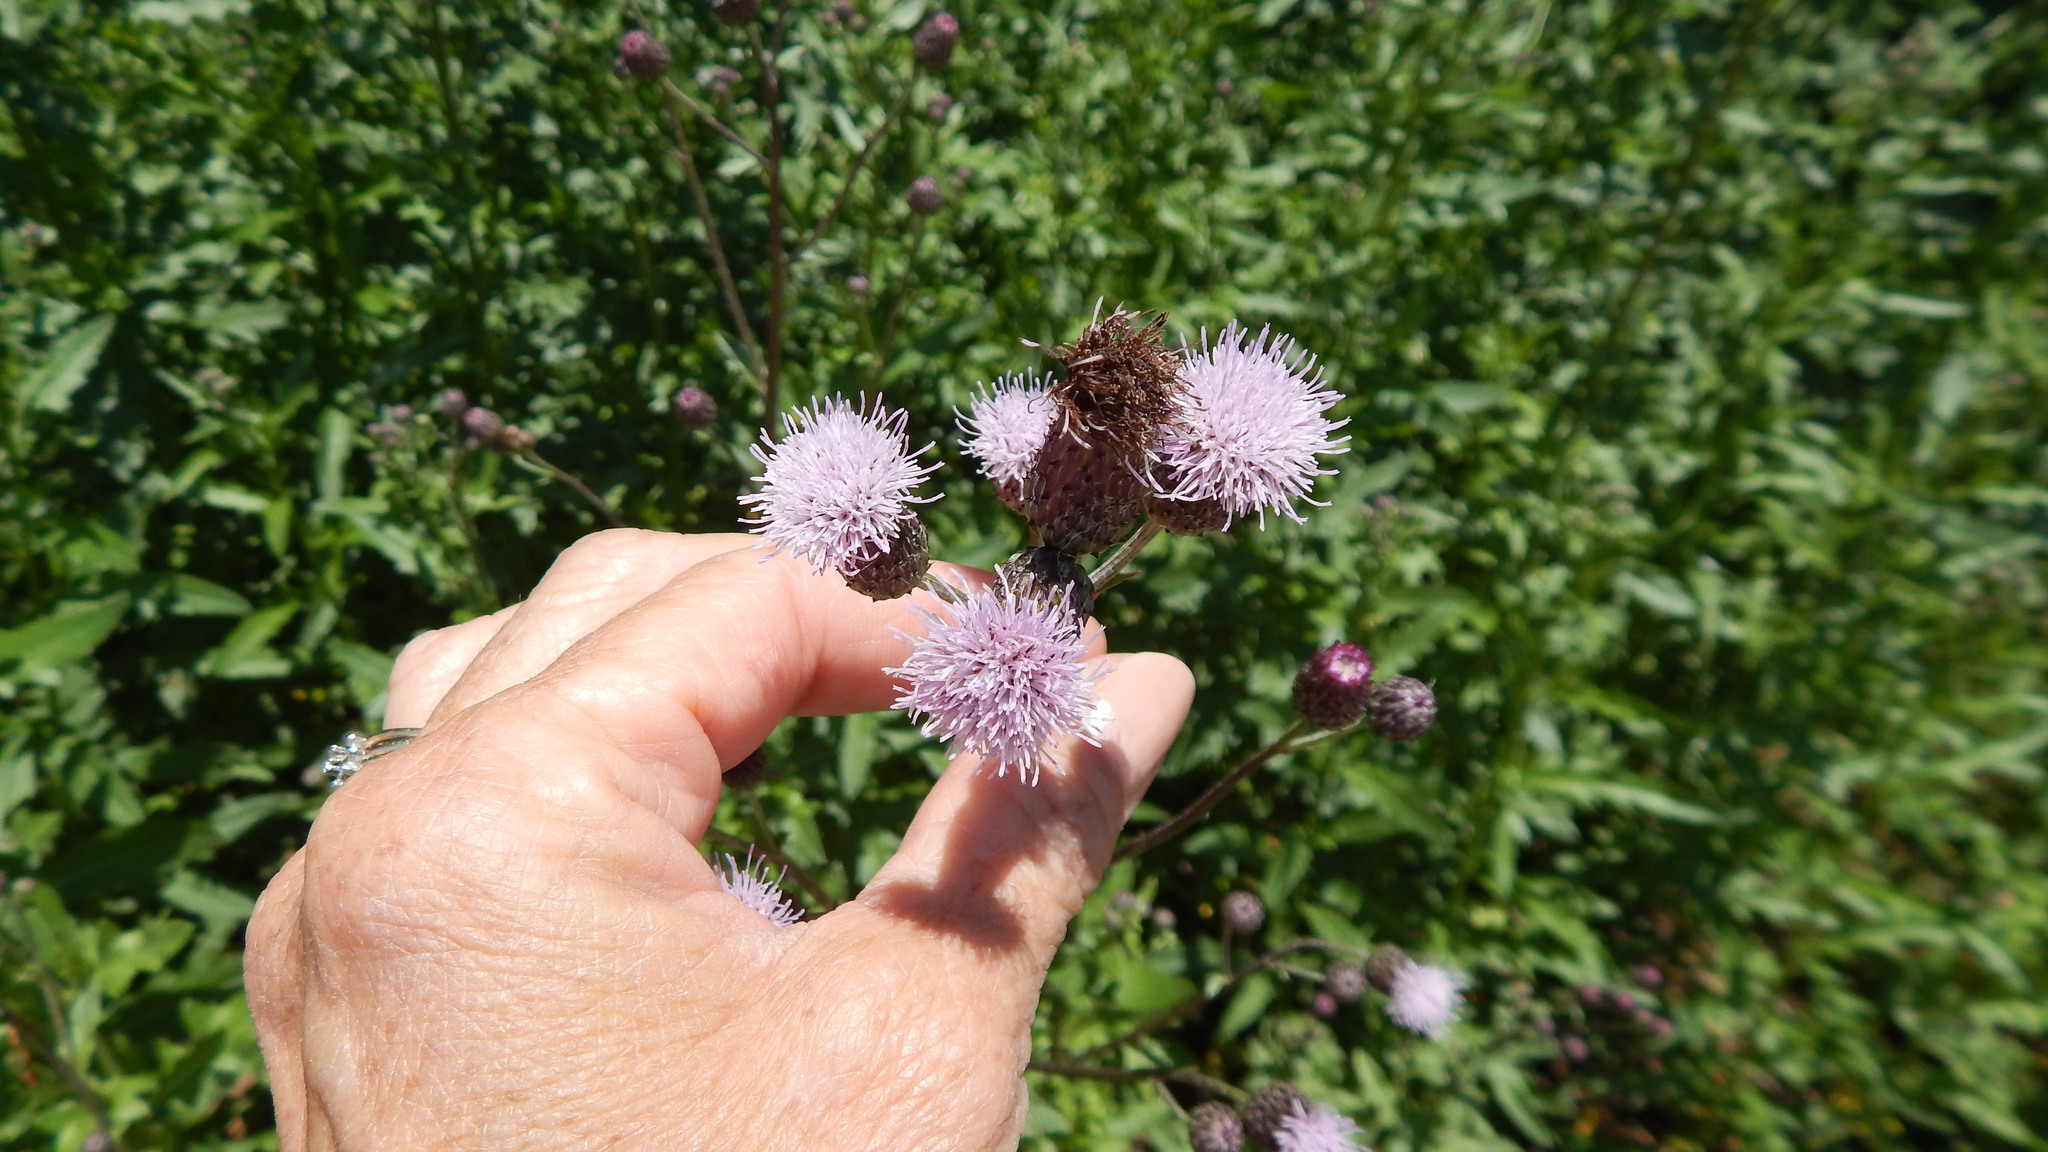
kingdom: Plantae
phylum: Tracheophyta
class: Magnoliopsida
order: Asterales
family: Asteraceae
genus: Cirsium
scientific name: Cirsium arvense
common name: Creeping thistle
